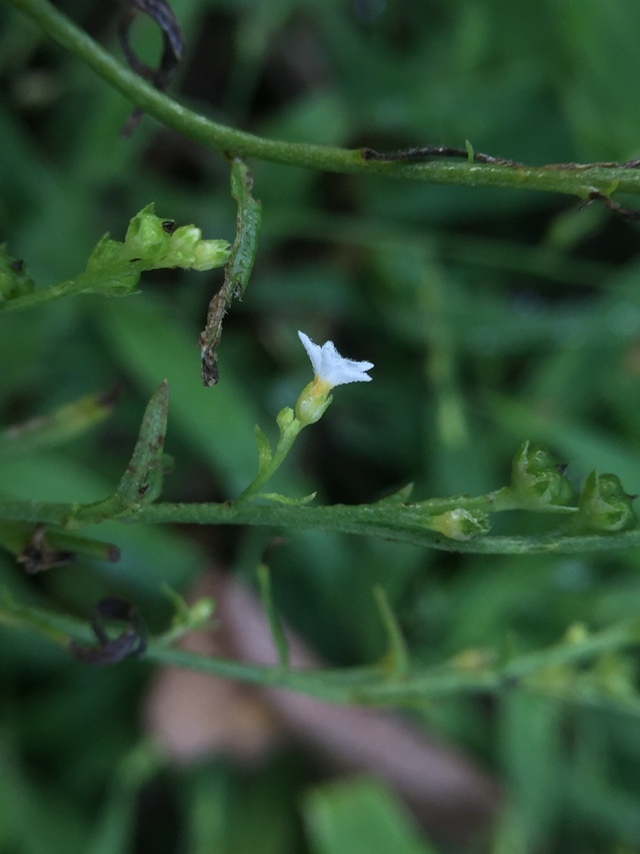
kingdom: Plantae
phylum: Tracheophyta
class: Magnoliopsida
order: Boraginales
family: Heliotropiaceae
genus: Euploca
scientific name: Euploca strigosa
